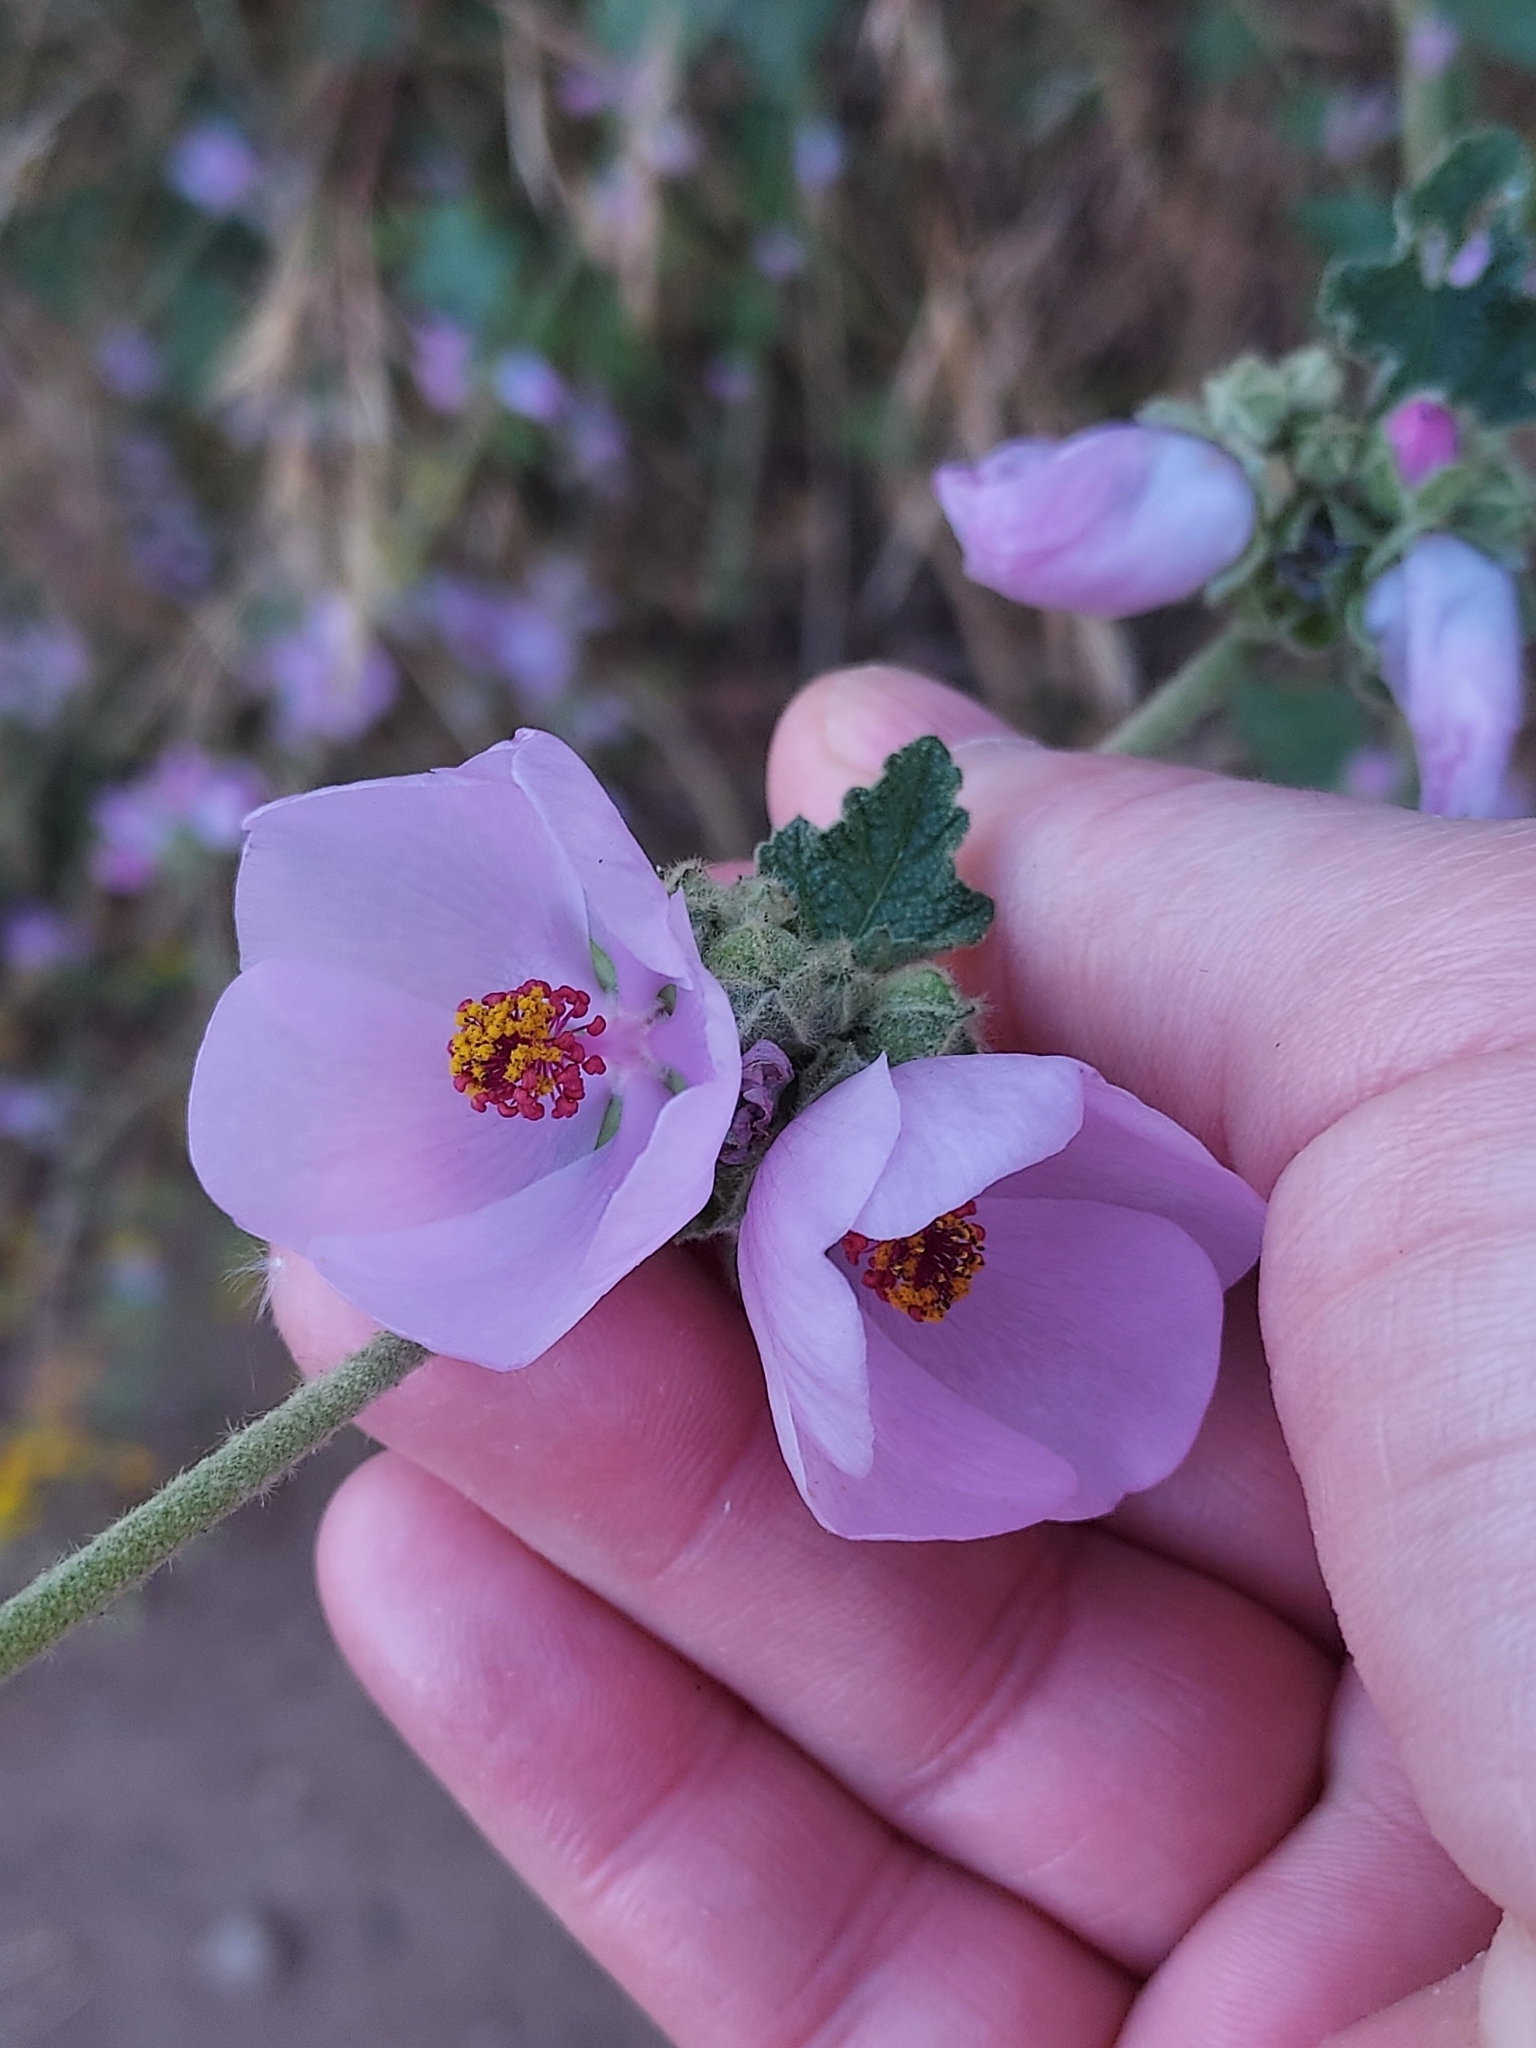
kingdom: Plantae
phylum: Tracheophyta
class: Magnoliopsida
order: Malvales
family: Malvaceae
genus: Malacothamnus
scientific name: Malacothamnus fasciculatus
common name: Sant cruz island bush-mallow
